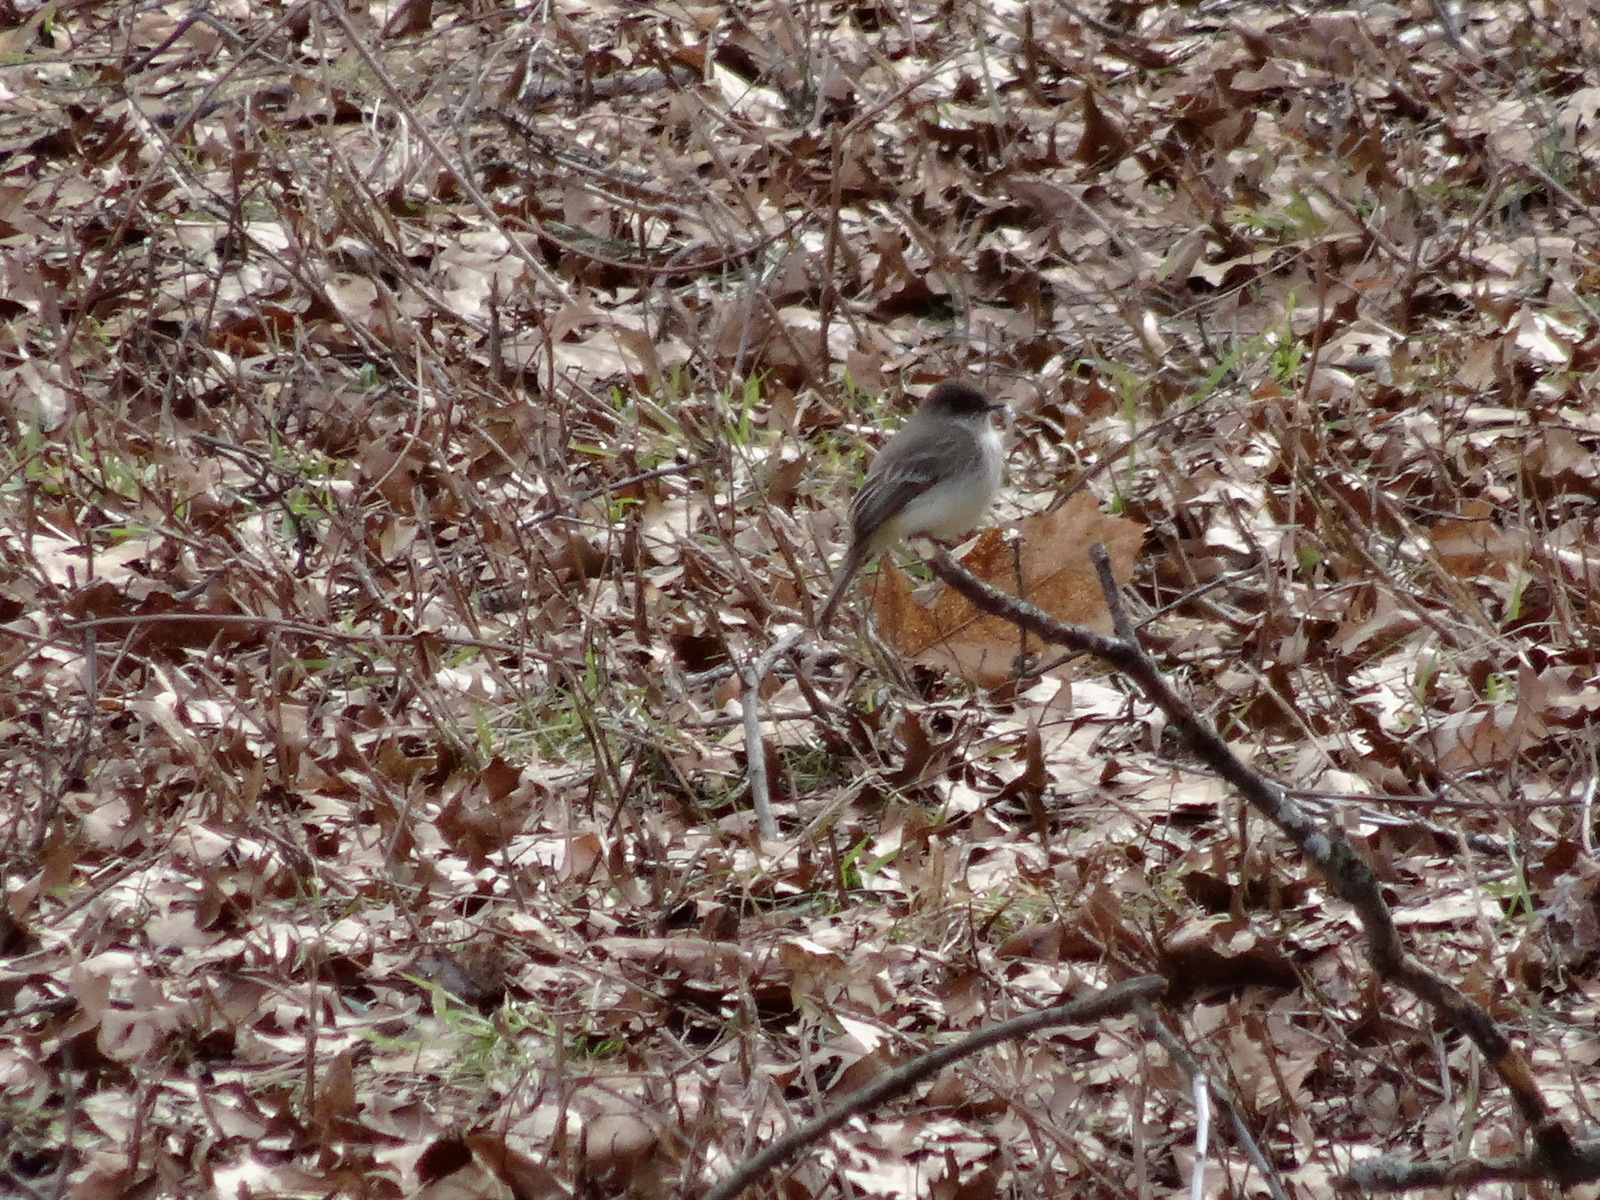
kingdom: Animalia
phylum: Chordata
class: Aves
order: Passeriformes
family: Tyrannidae
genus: Sayornis
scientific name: Sayornis phoebe
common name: Eastern phoebe
